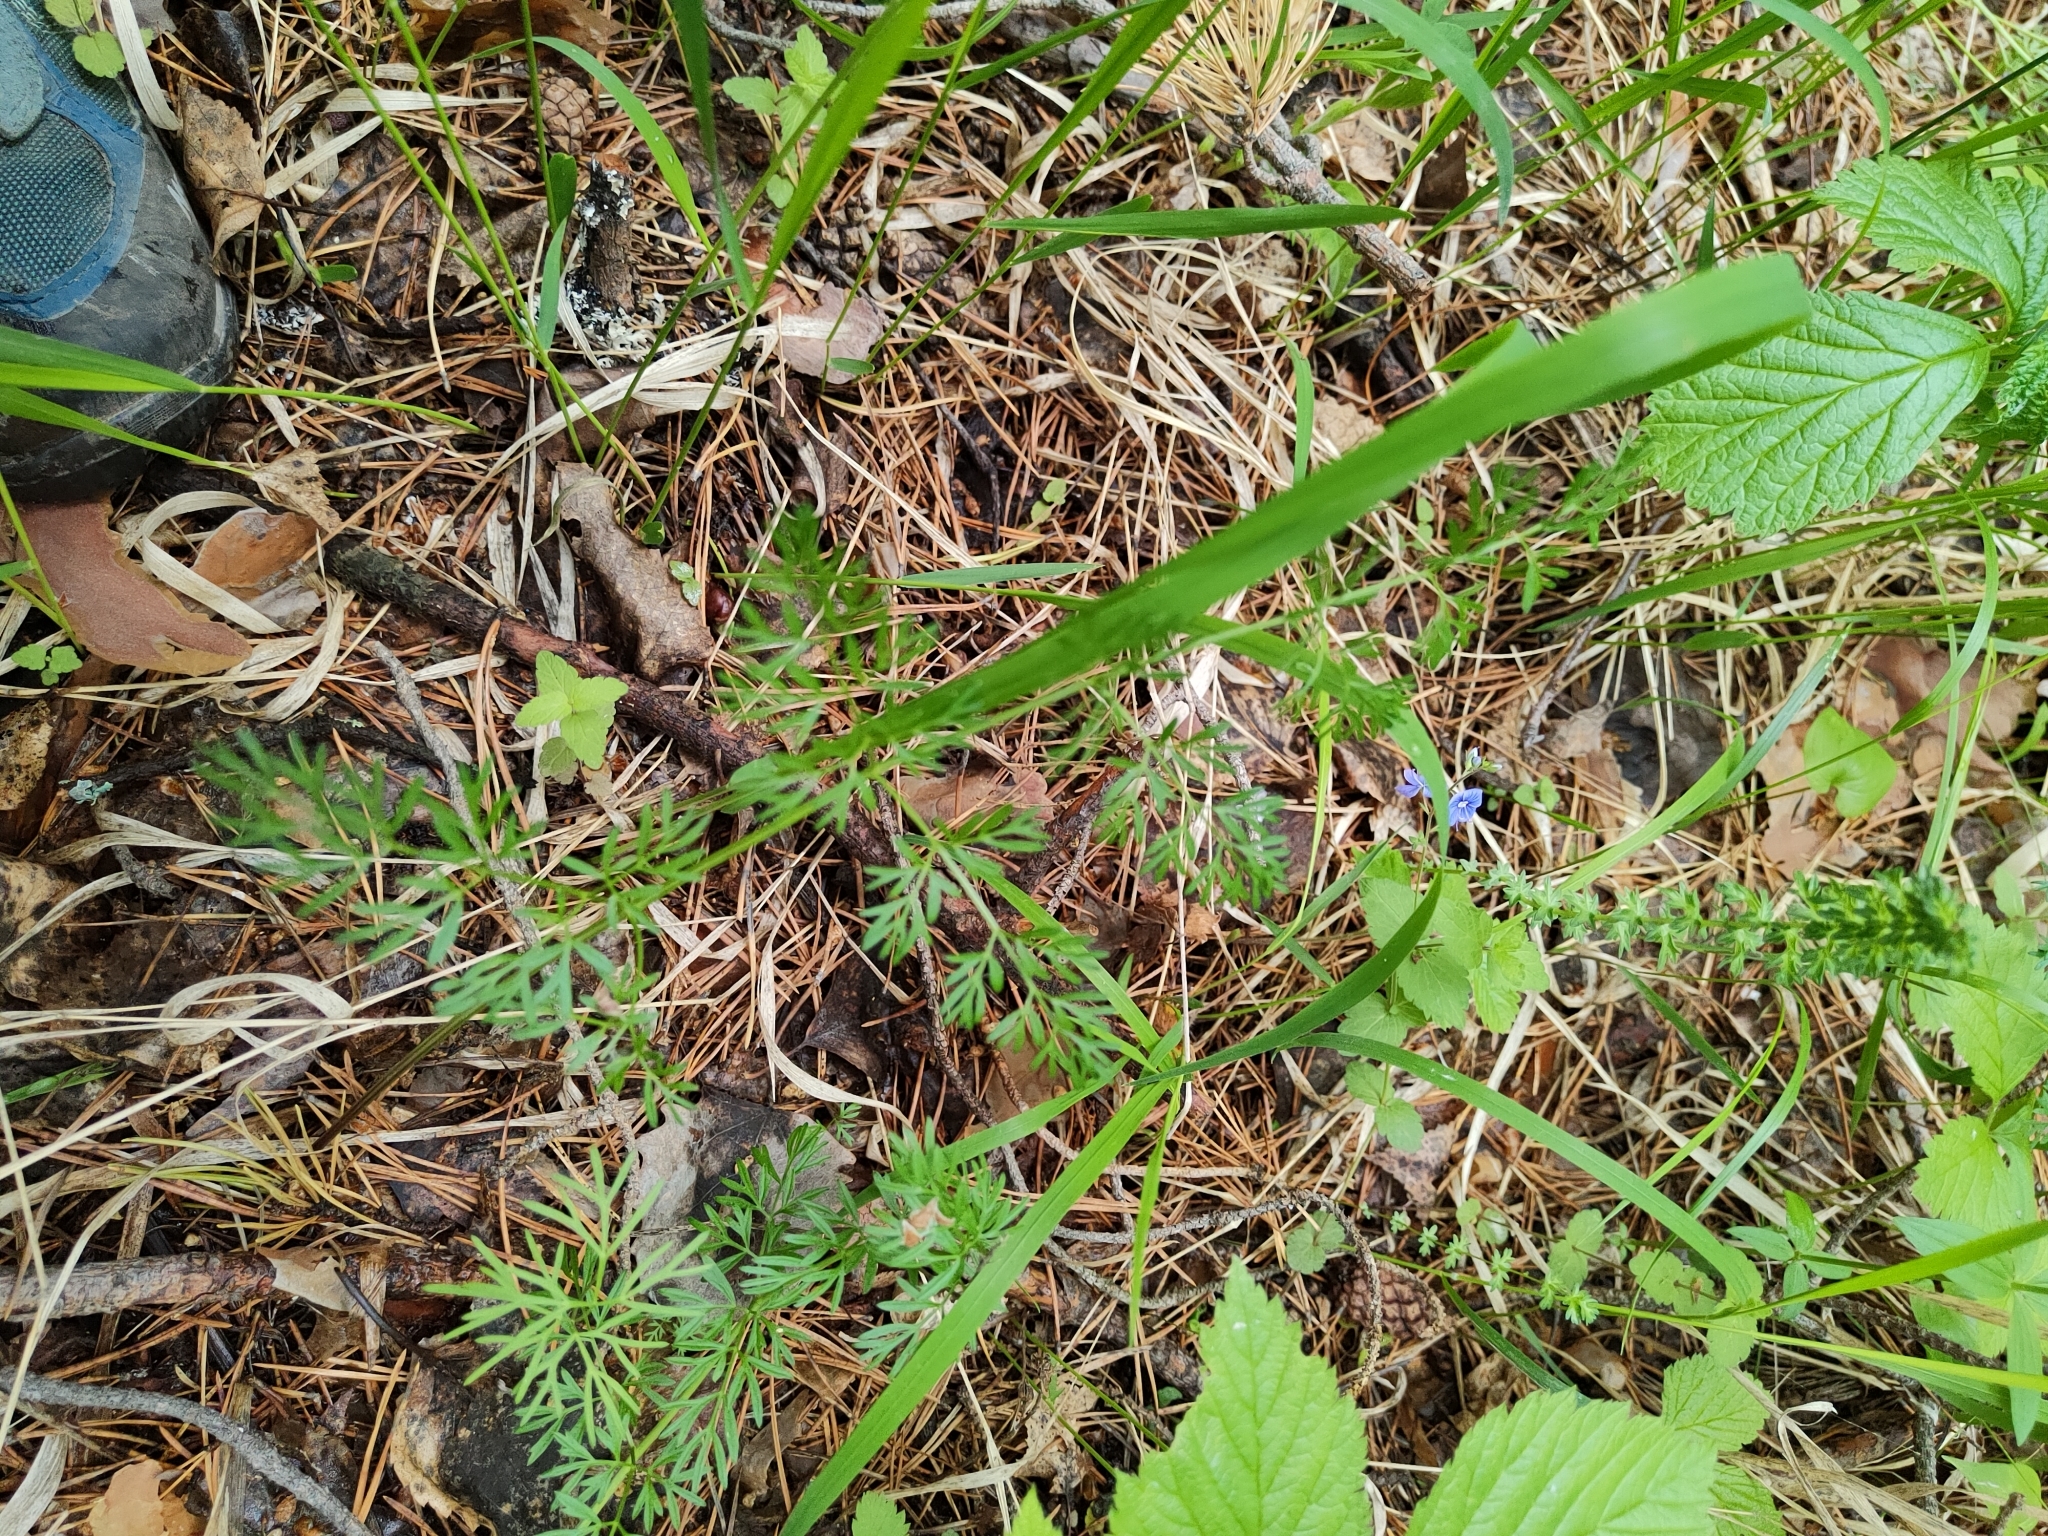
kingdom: Plantae
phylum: Tracheophyta
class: Magnoliopsida
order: Apiales
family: Apiaceae
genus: Kadenia
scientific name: Kadenia dubia
